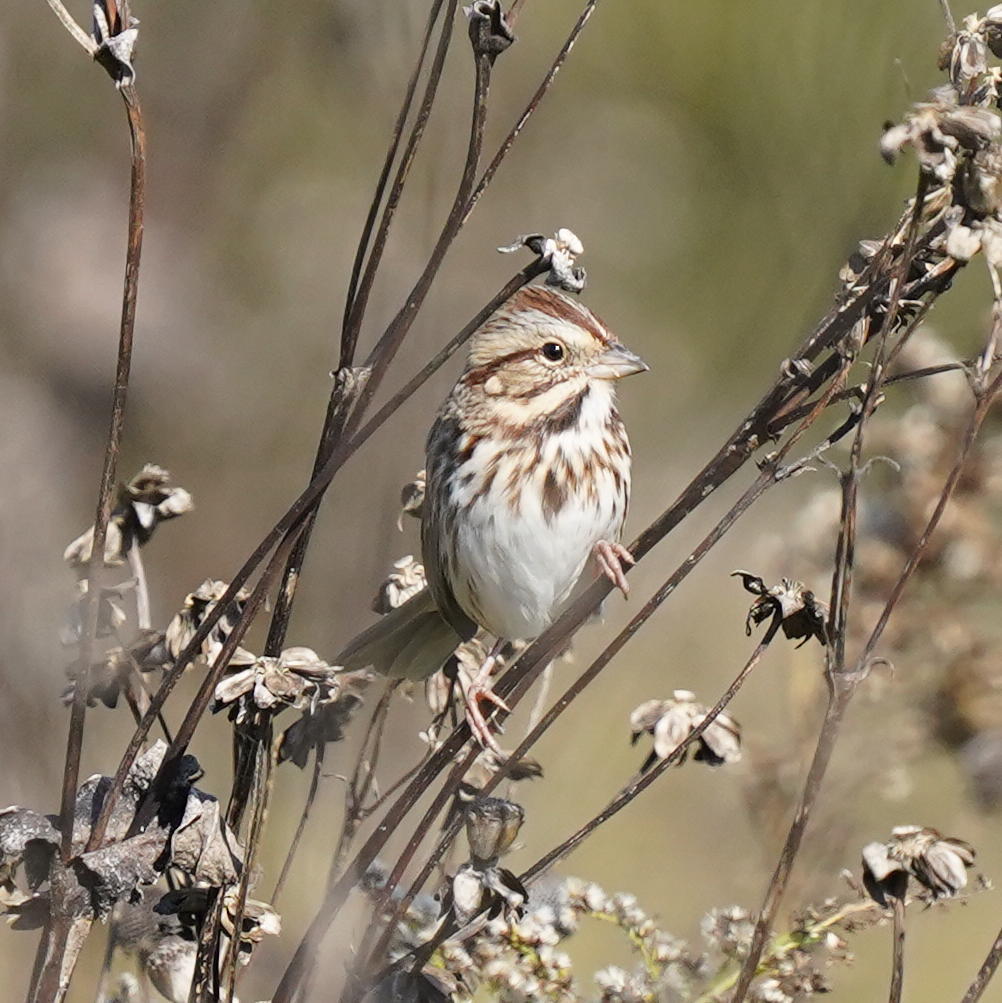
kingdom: Animalia
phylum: Chordata
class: Aves
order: Passeriformes
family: Passerellidae
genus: Melospiza
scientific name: Melospiza melodia
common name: Song sparrow
